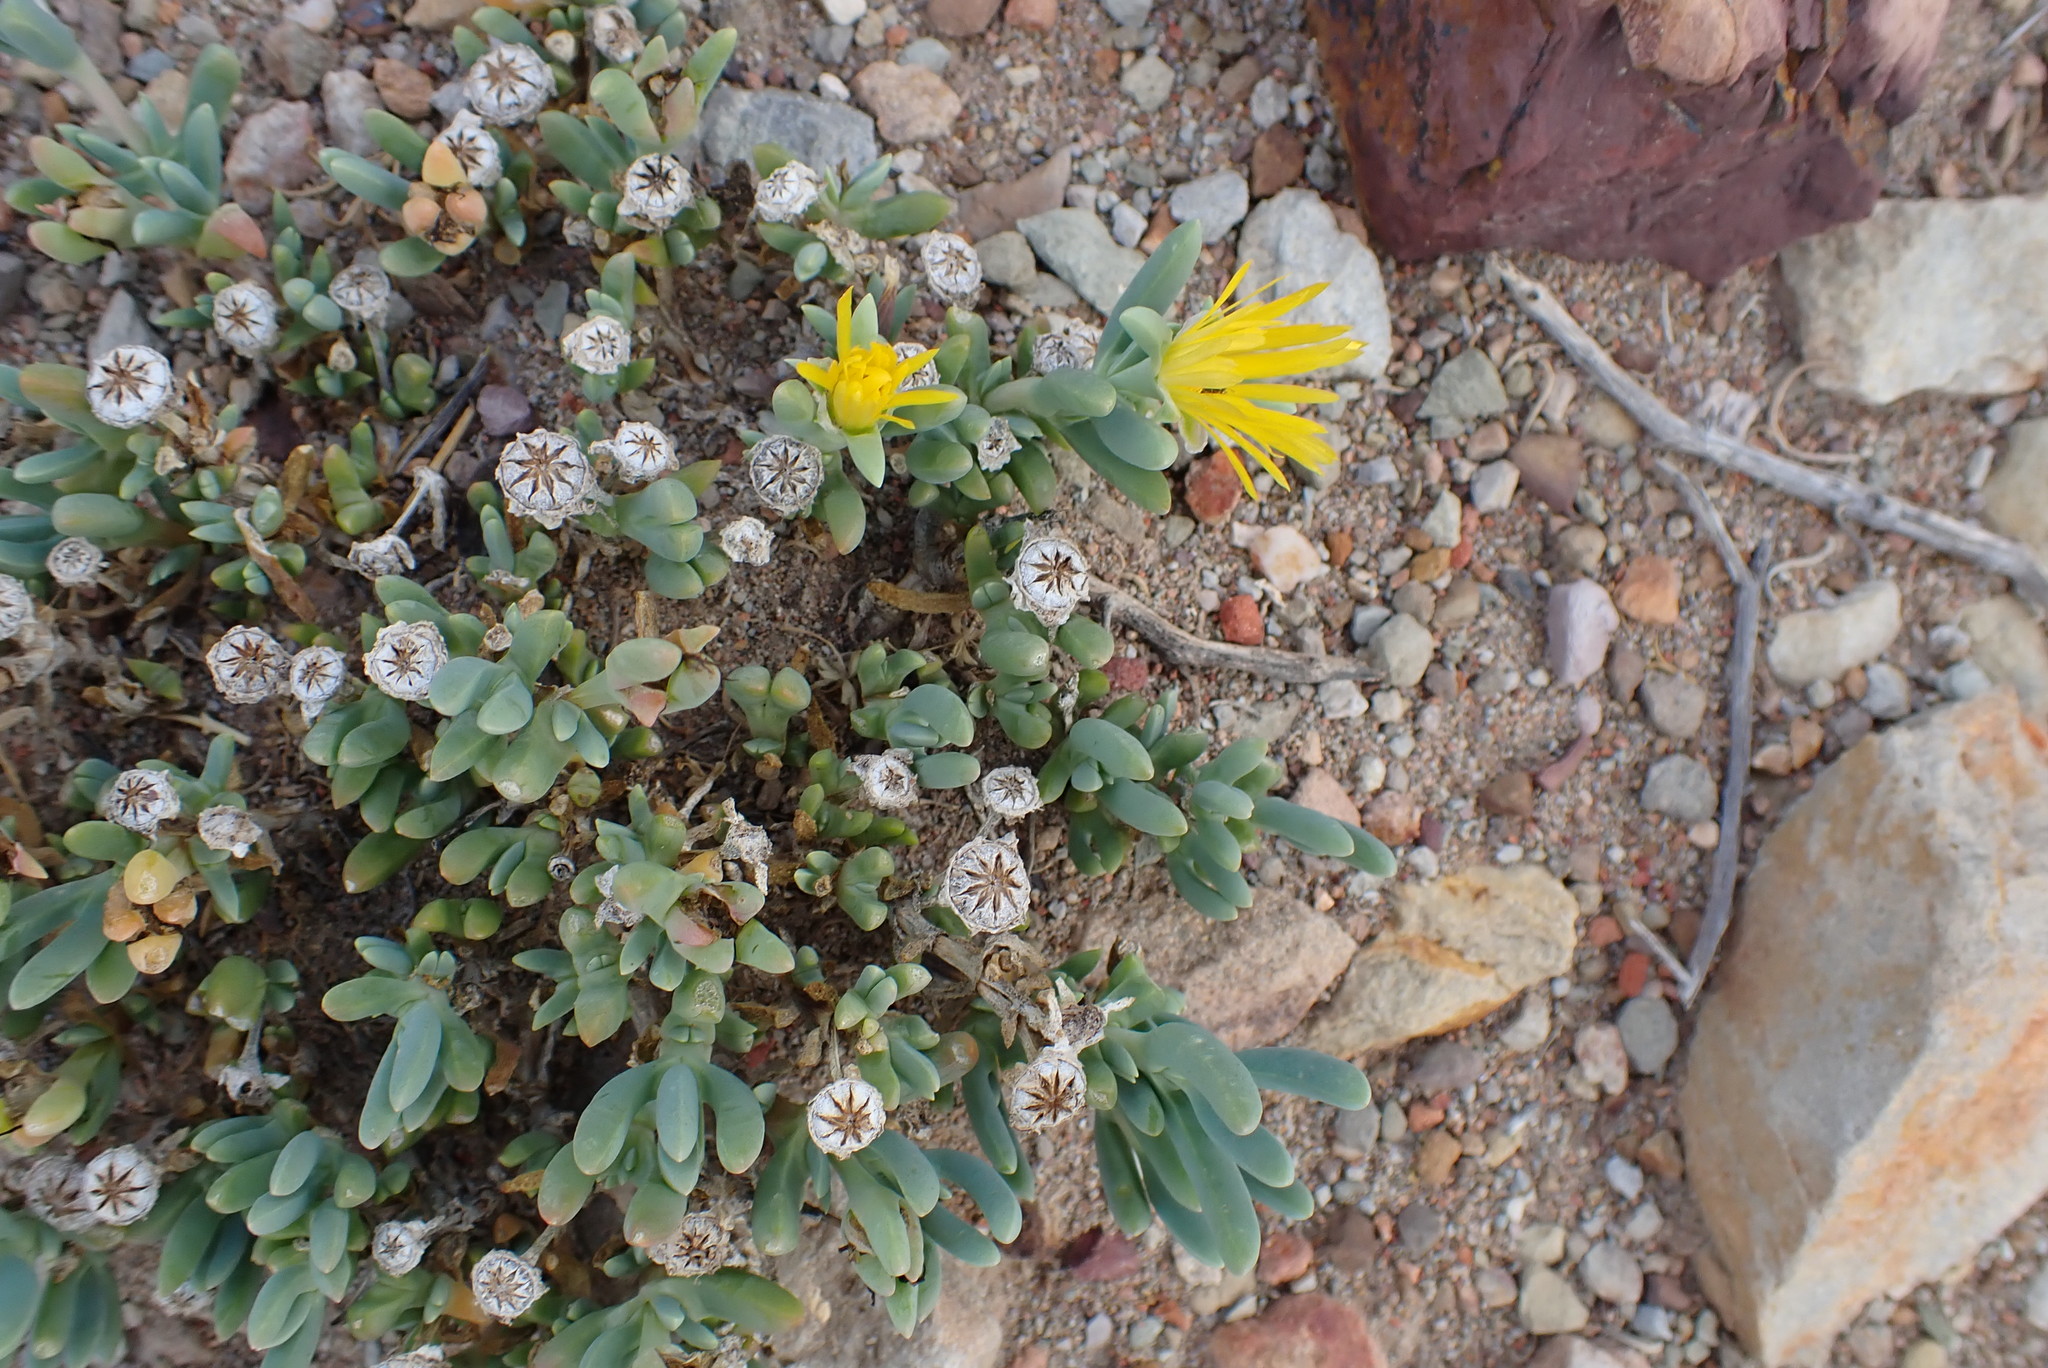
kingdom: Plantae
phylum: Tracheophyta
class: Magnoliopsida
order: Caryophyllales
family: Aizoaceae
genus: Malephora
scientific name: Malephora lutea
